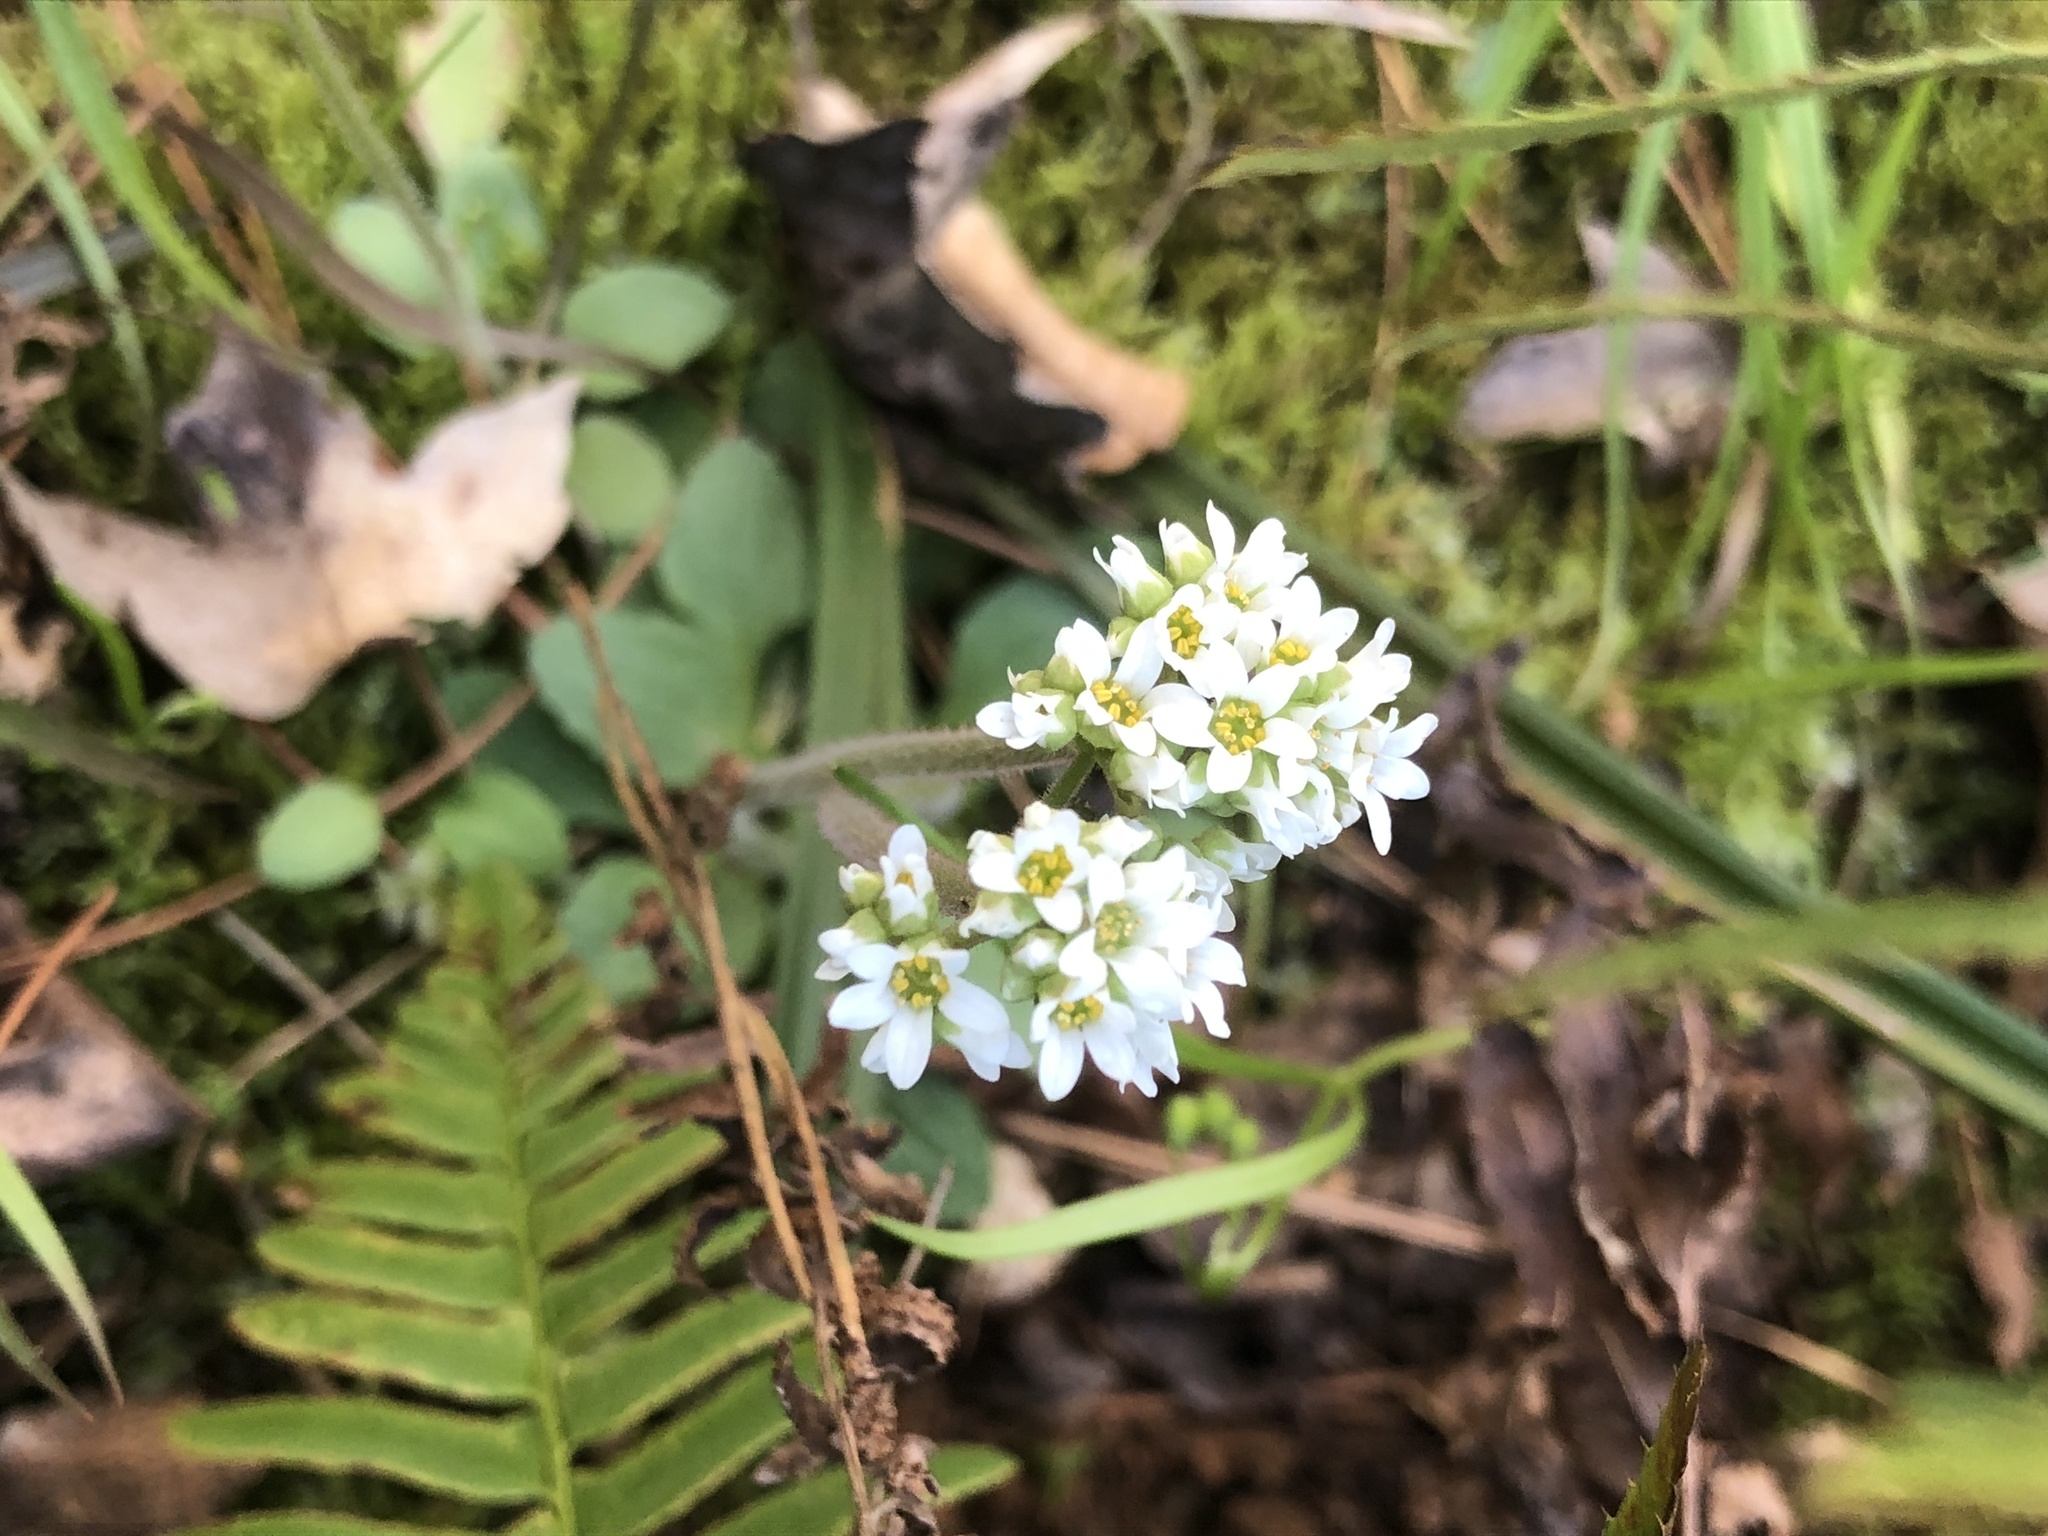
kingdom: Plantae
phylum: Tracheophyta
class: Magnoliopsida
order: Saxifragales
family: Saxifragaceae
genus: Micranthes
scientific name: Micranthes virginiensis
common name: Early saxifrage
